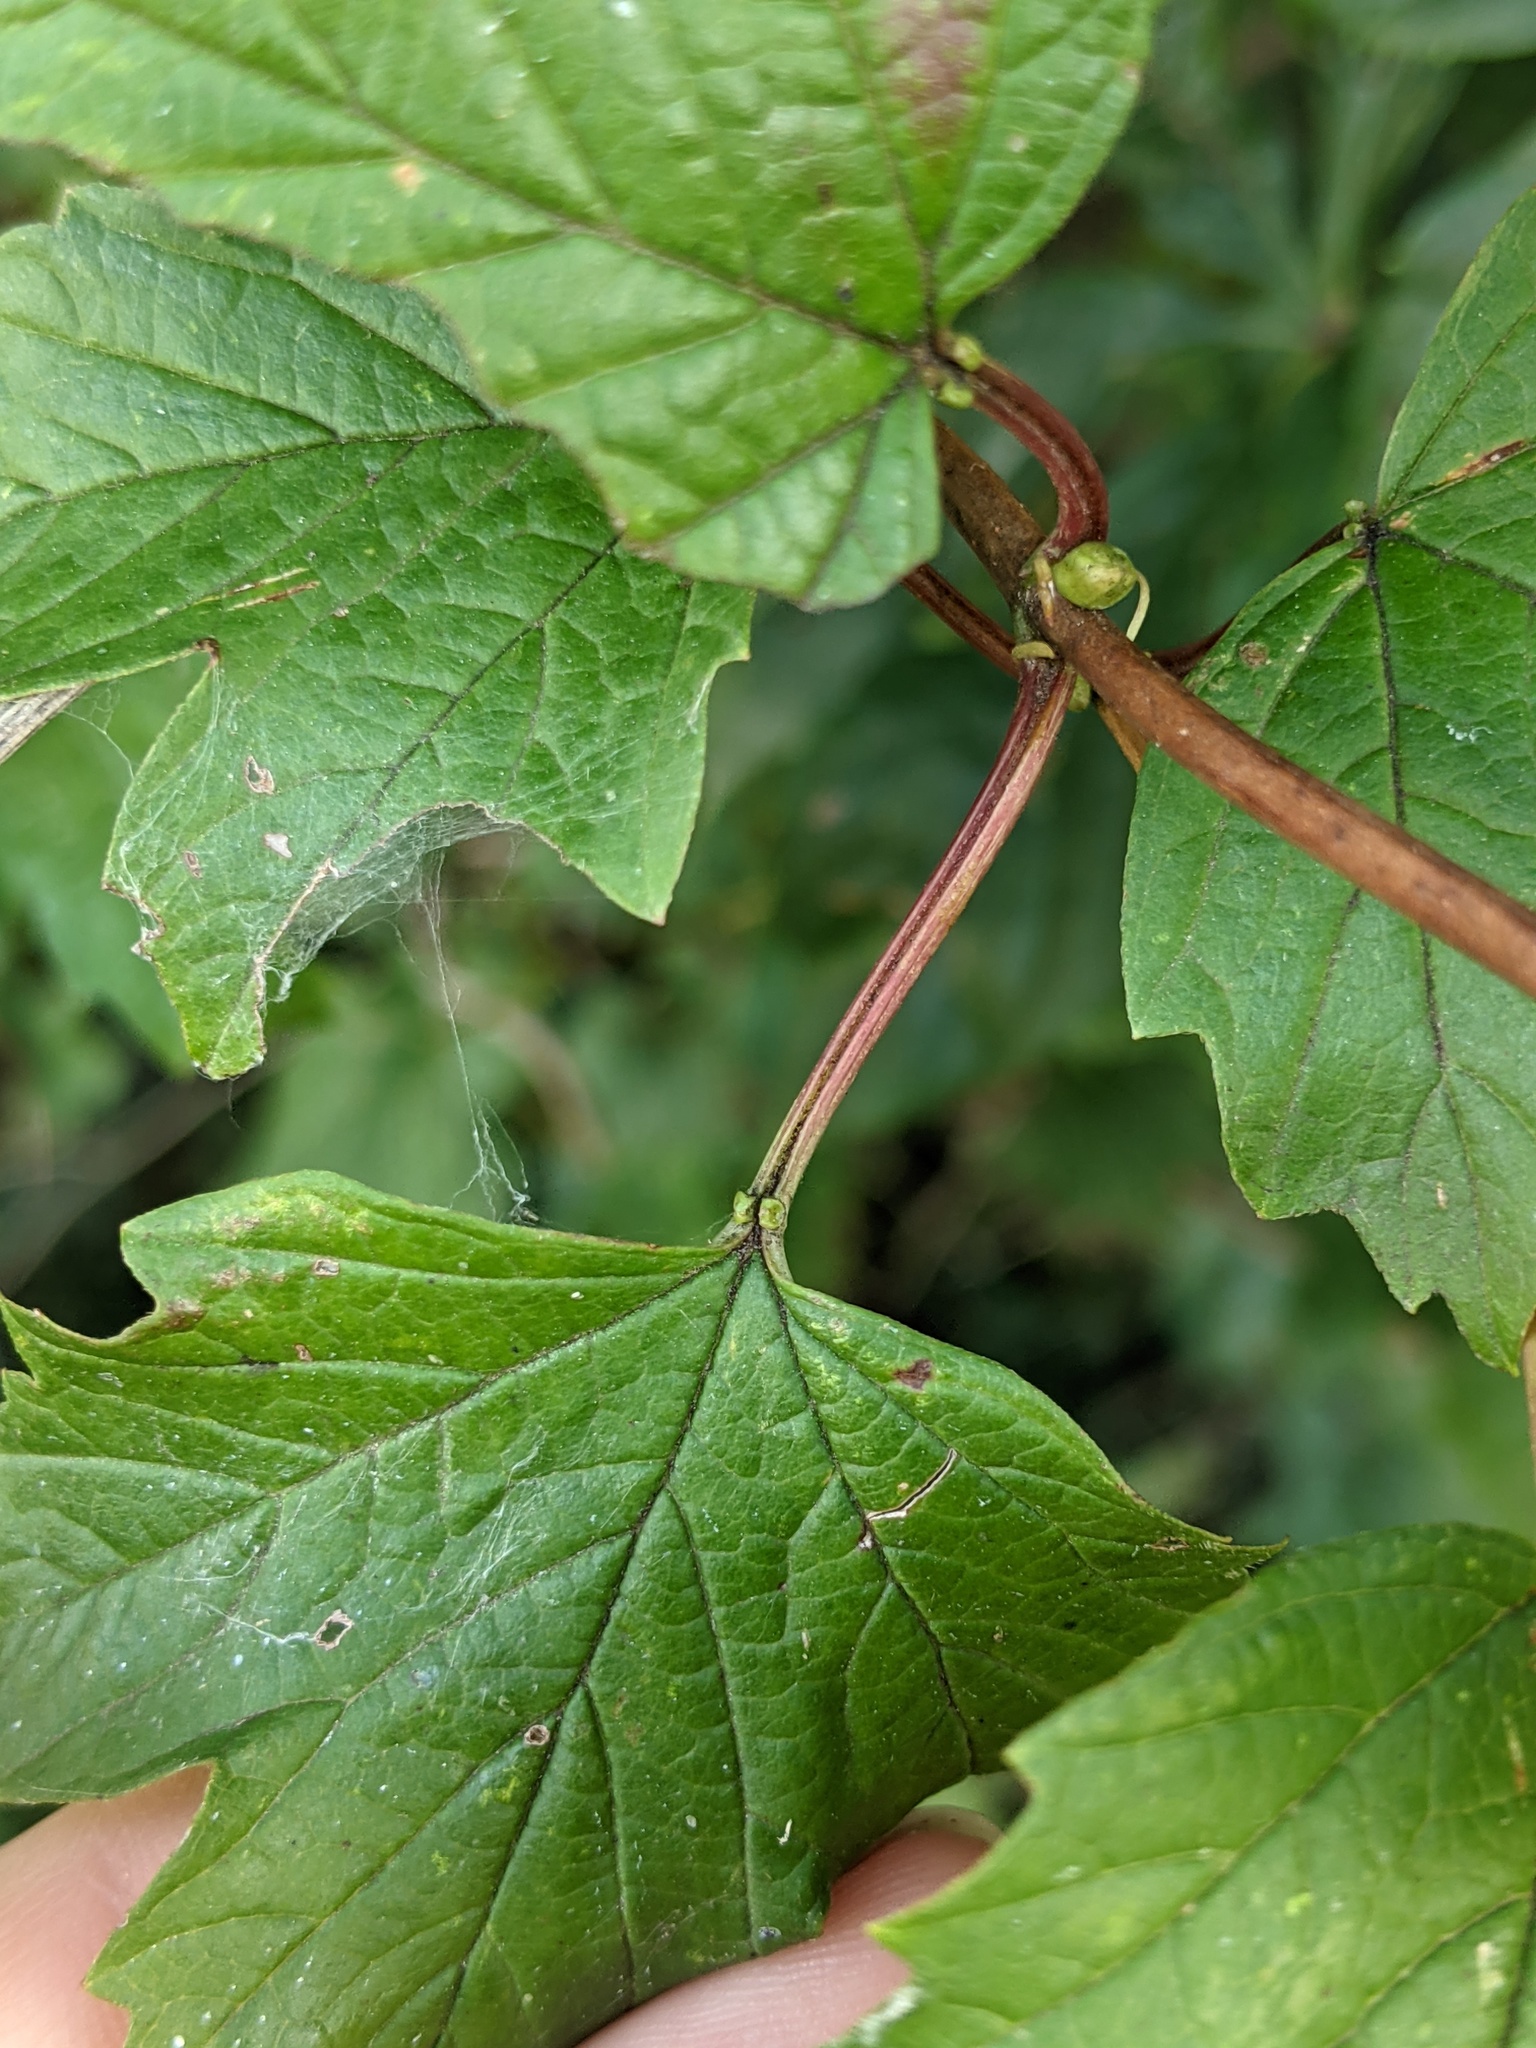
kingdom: Plantae
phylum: Tracheophyta
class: Magnoliopsida
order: Dipsacales
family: Viburnaceae
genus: Viburnum
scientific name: Viburnum opulus
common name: Guelder-rose
